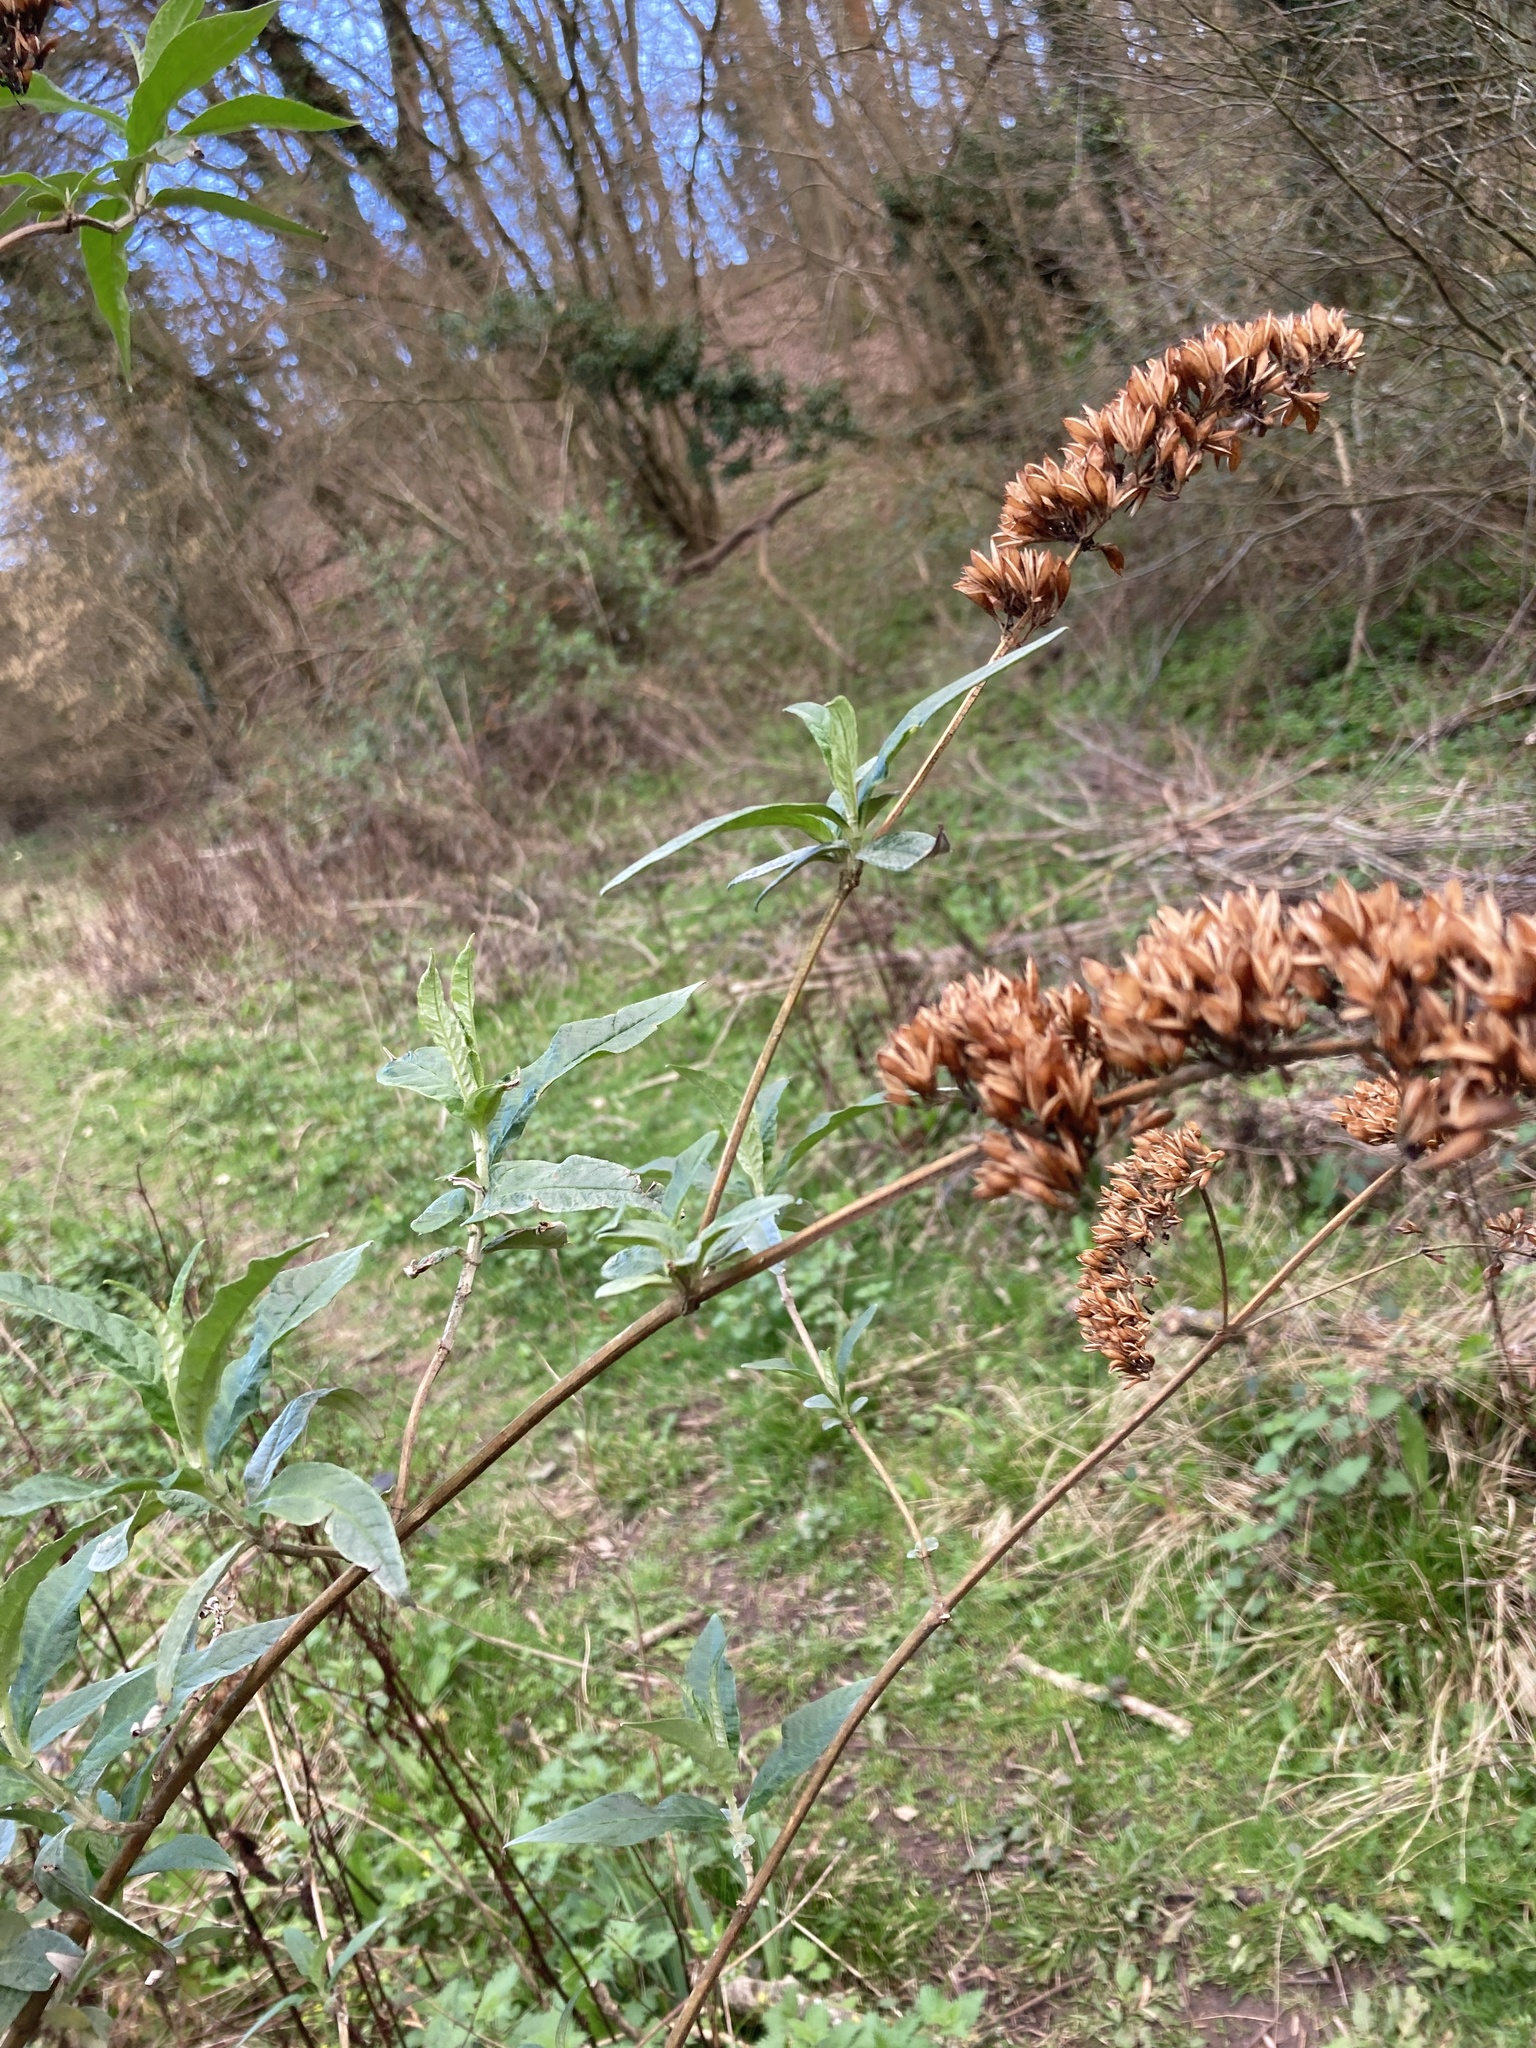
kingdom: Plantae
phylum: Tracheophyta
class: Magnoliopsida
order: Lamiales
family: Scrophulariaceae
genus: Buddleja
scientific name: Buddleja davidii
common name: Butterfly-bush
